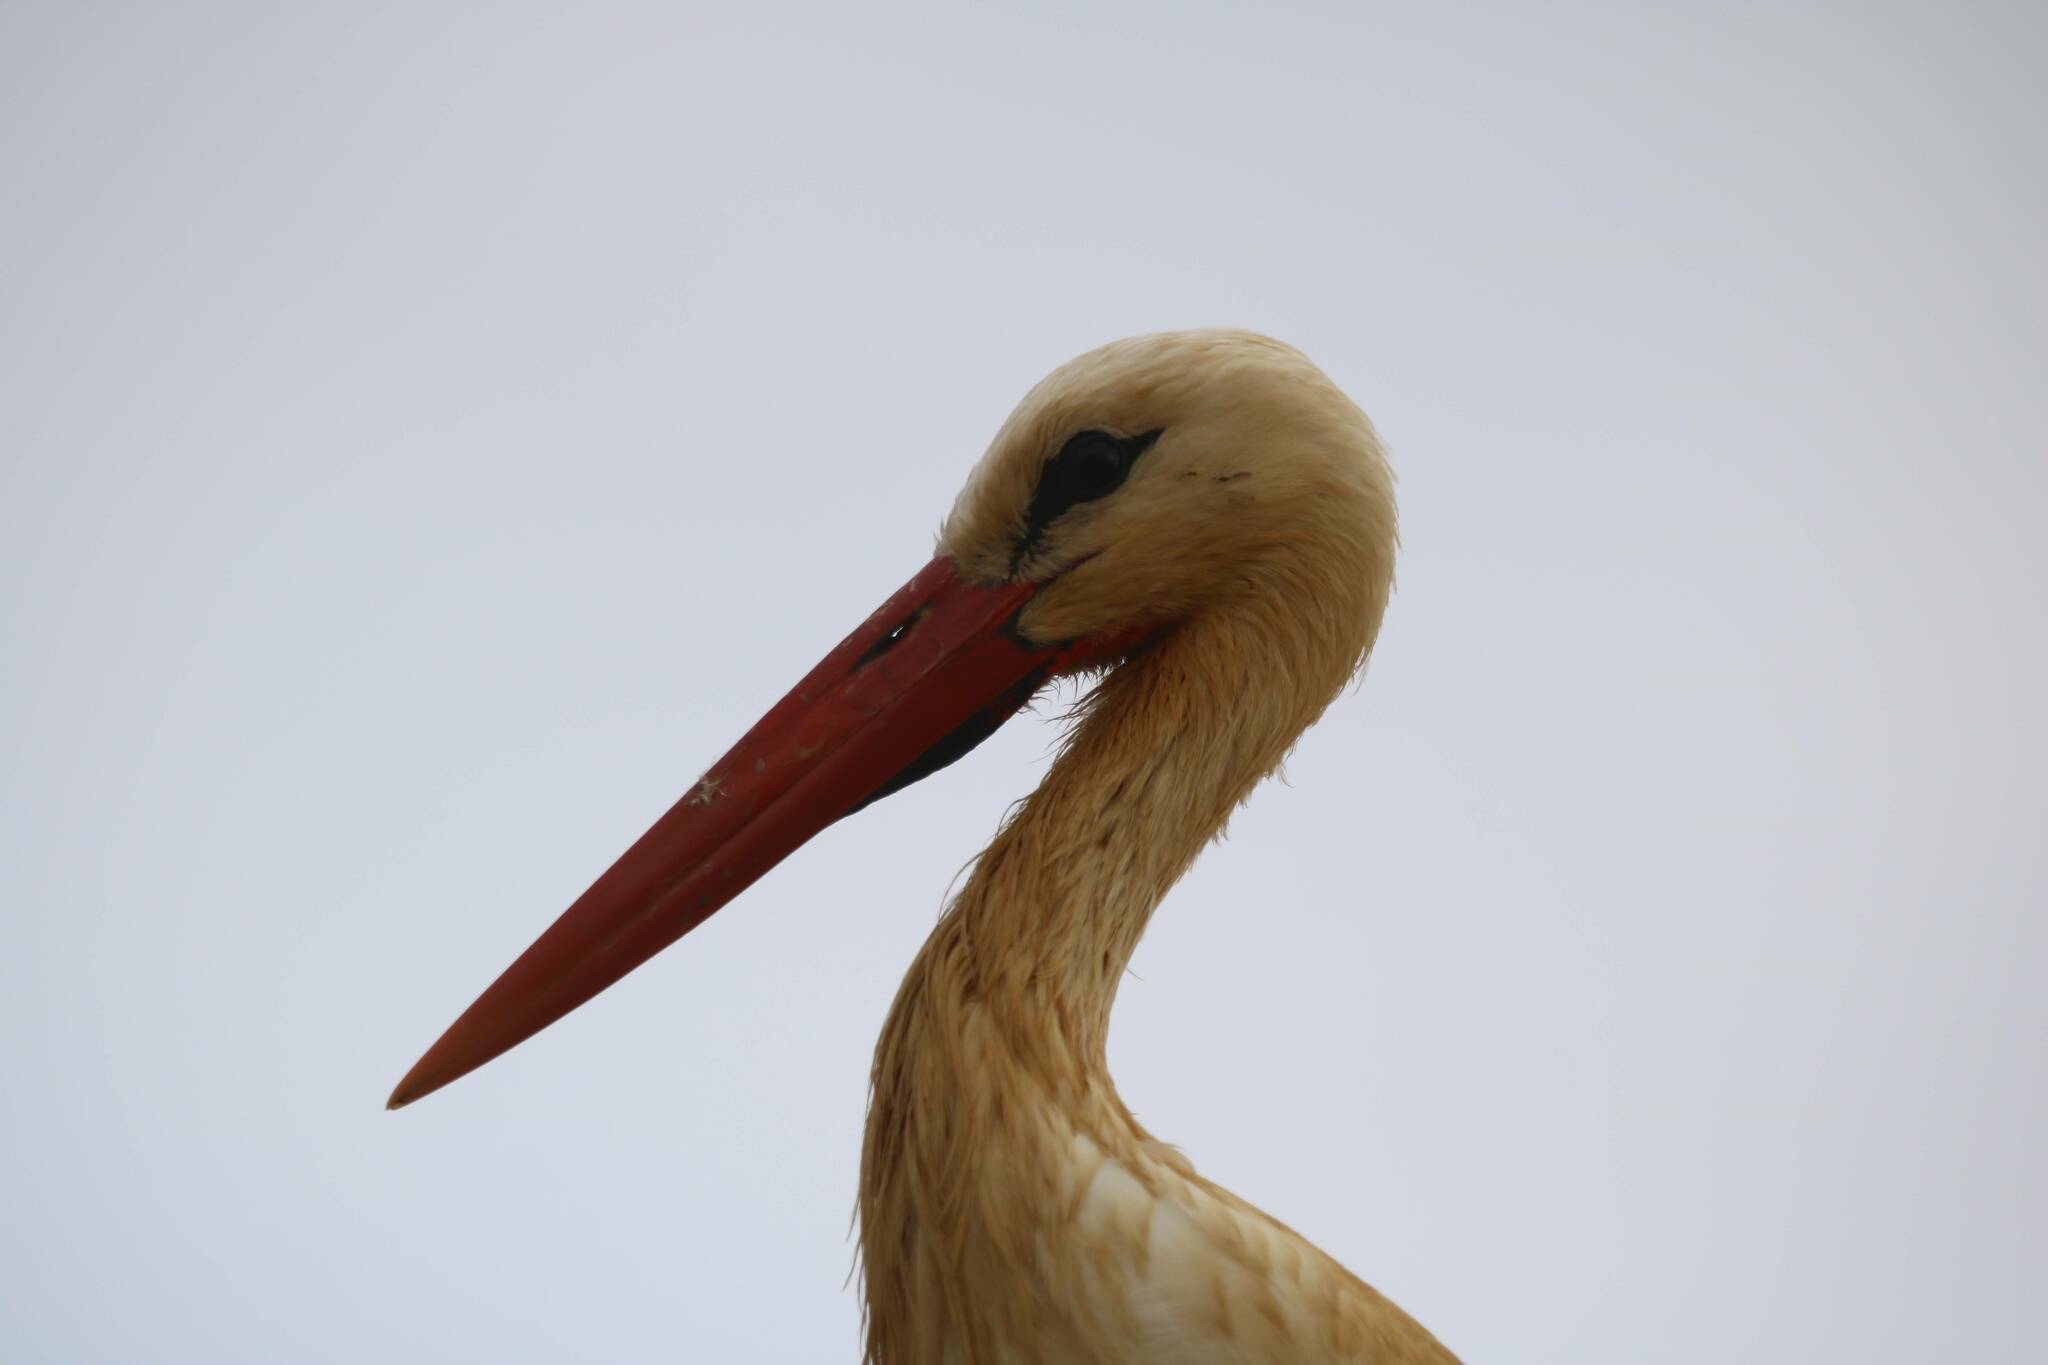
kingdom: Animalia
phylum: Chordata
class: Aves
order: Ciconiiformes
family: Ciconiidae
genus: Ciconia
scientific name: Ciconia ciconia
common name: White stork
